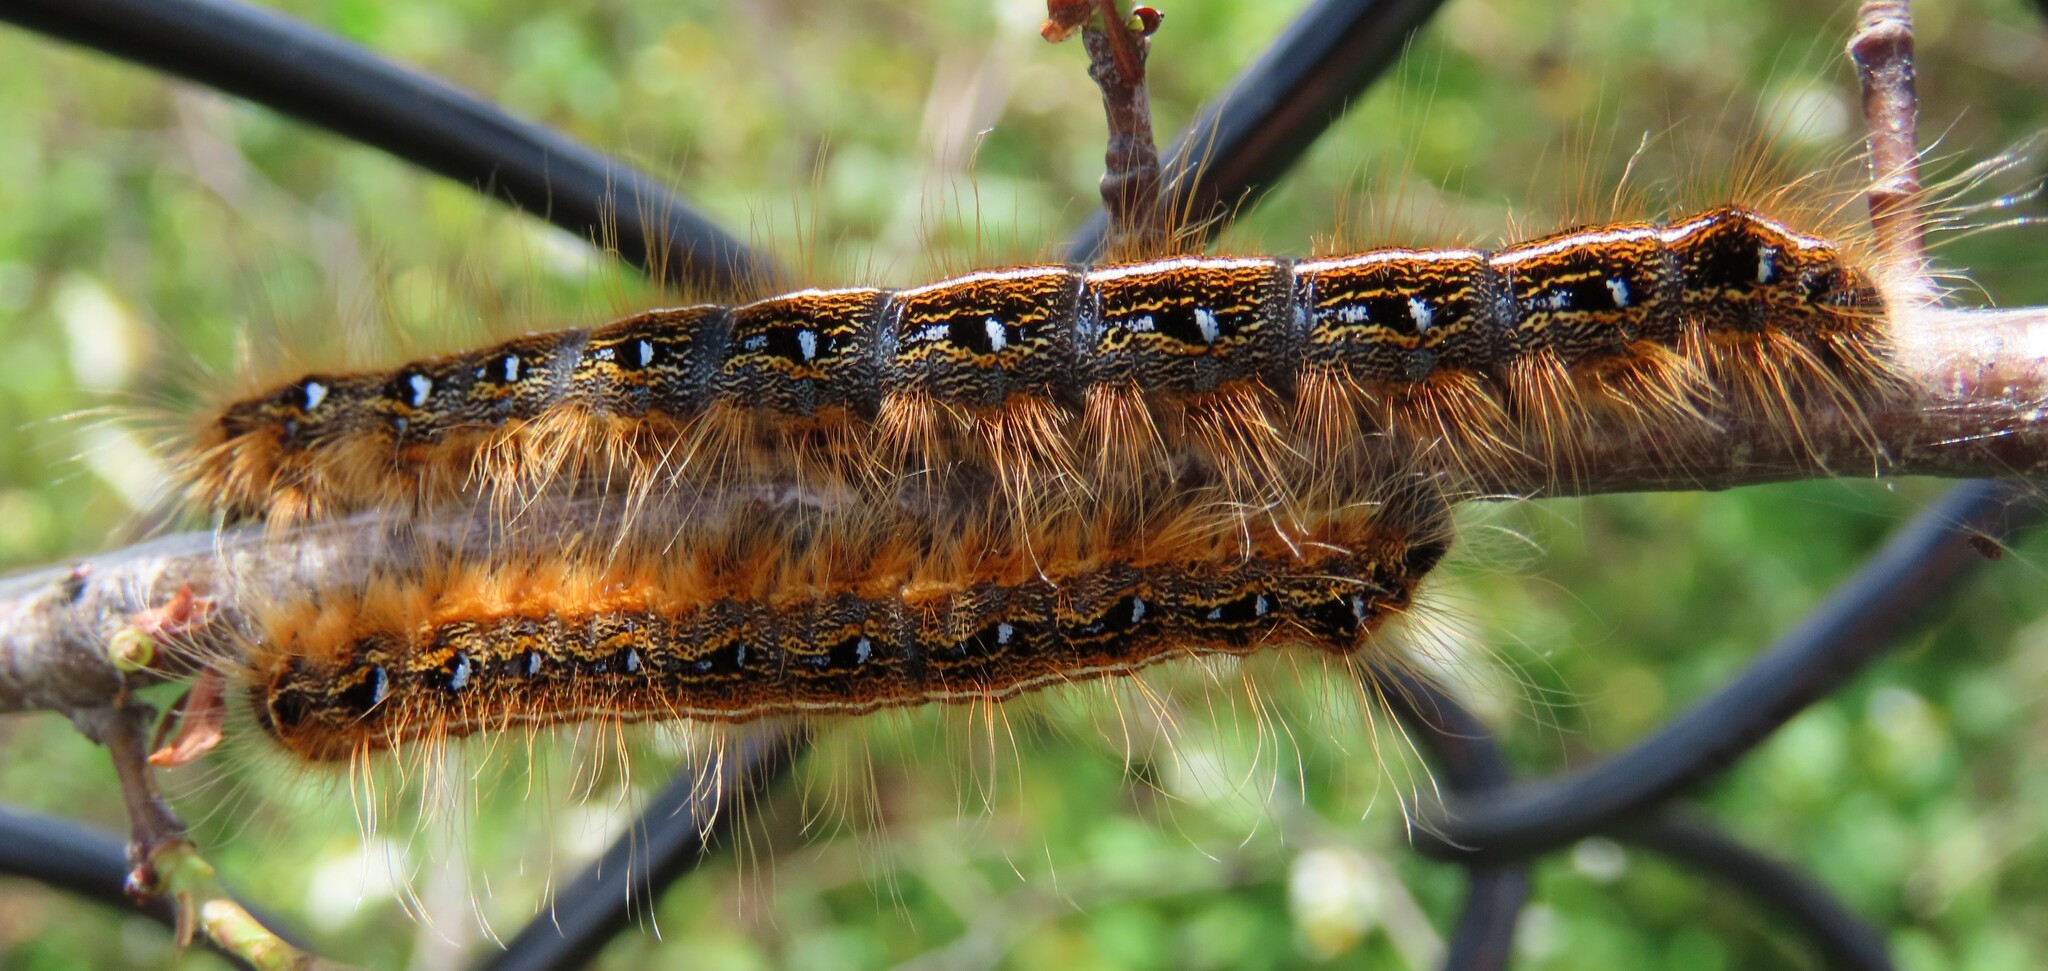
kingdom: Animalia
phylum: Arthropoda
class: Insecta
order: Lepidoptera
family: Lasiocampidae
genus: Malacosoma
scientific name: Malacosoma americana
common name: Eastern tent caterpillar moth
